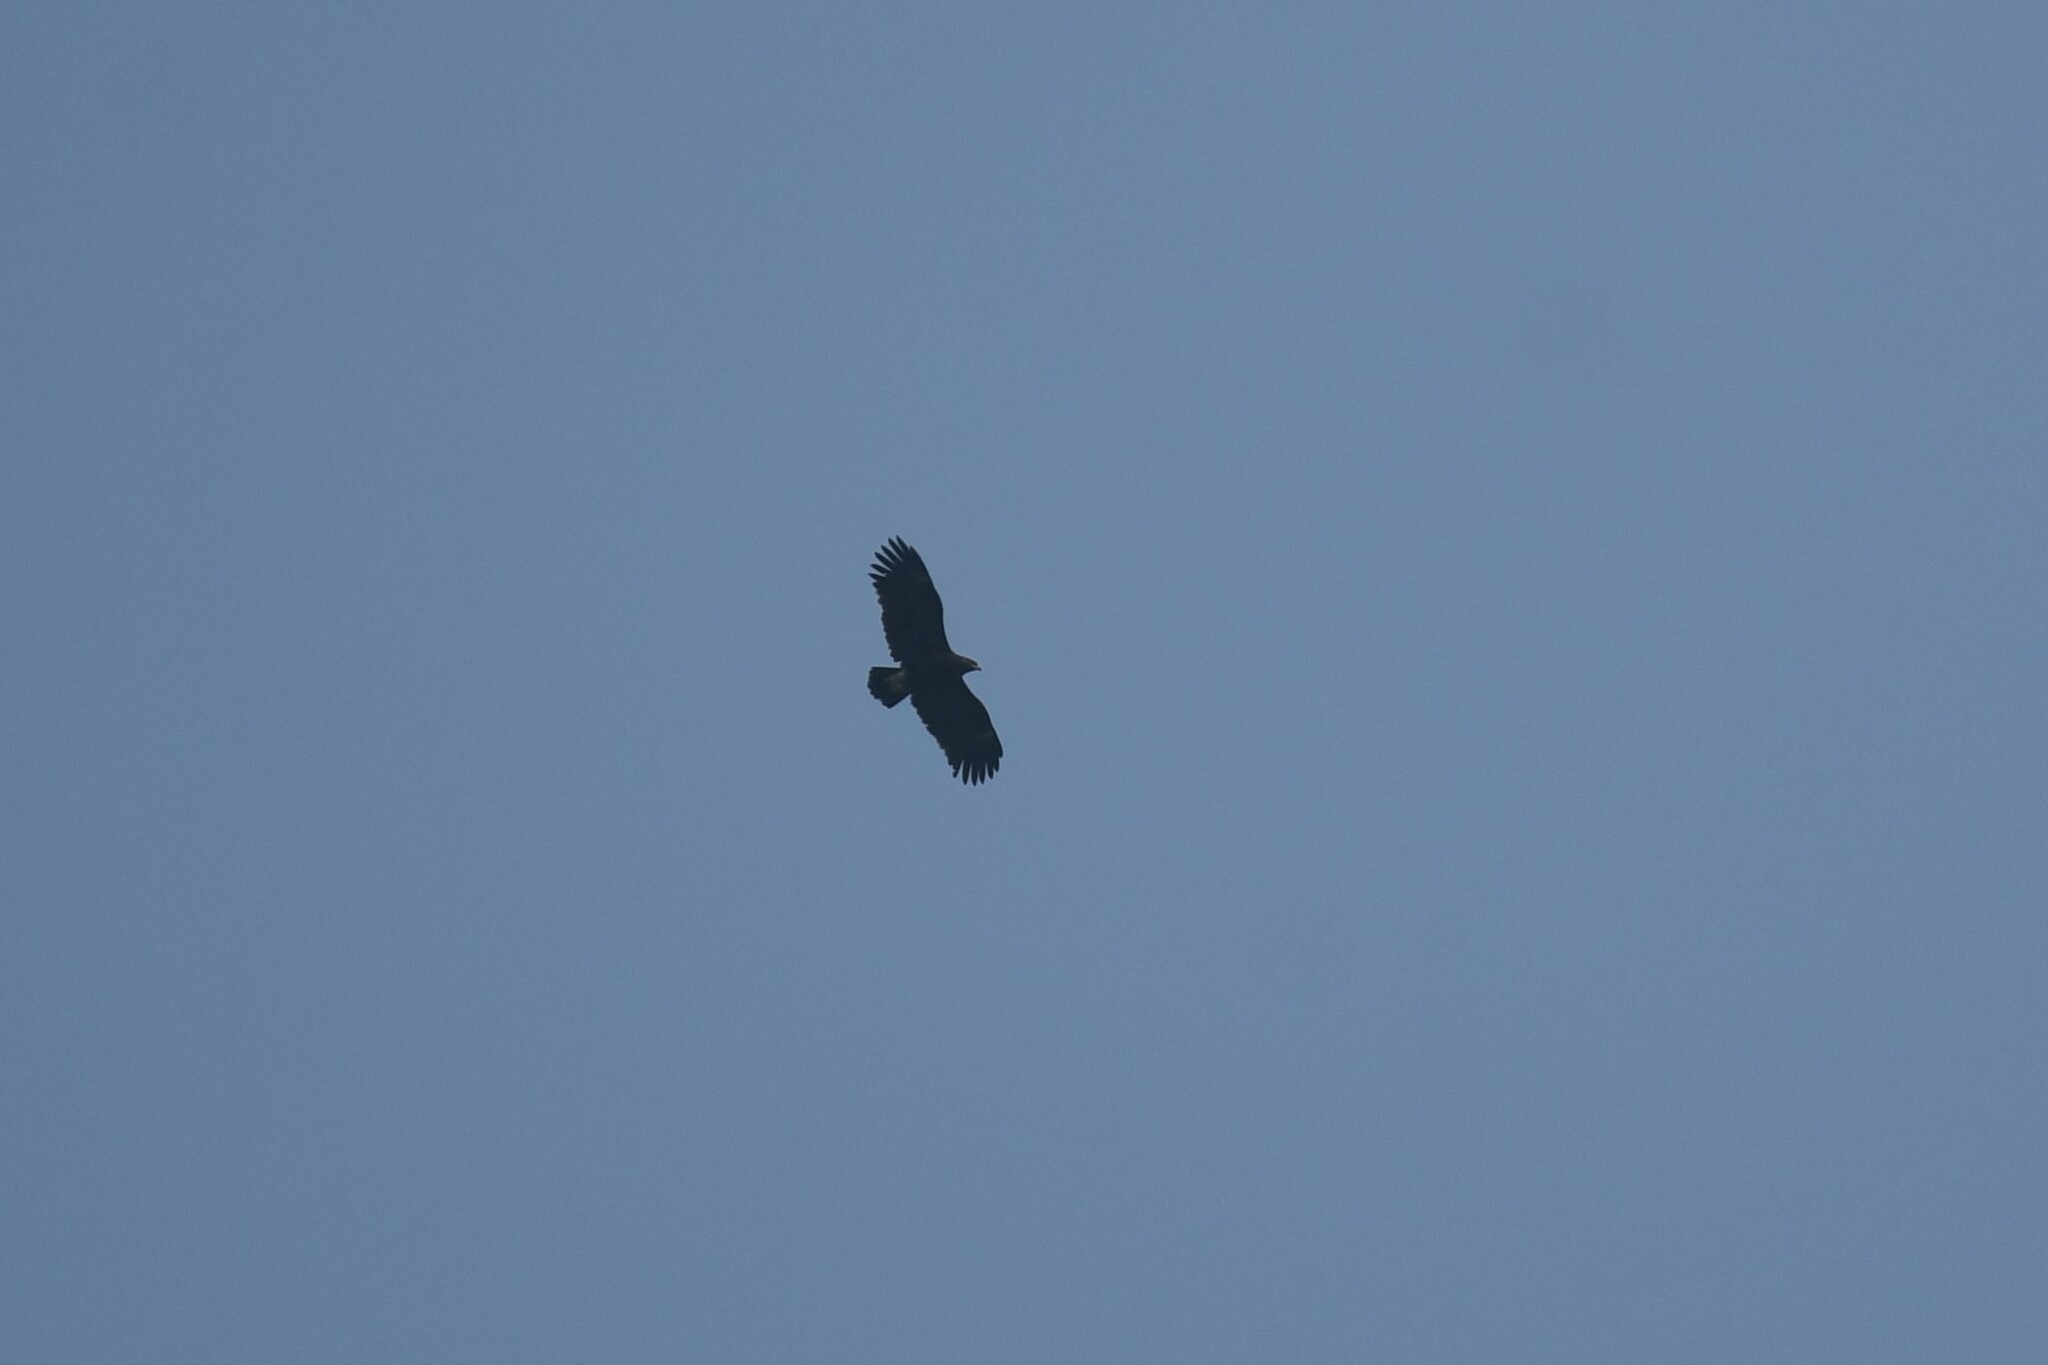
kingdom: Animalia
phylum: Chordata
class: Aves
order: Accipitriformes
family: Accipitridae
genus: Aquila
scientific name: Aquila clanga
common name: Greater spotted eagle
